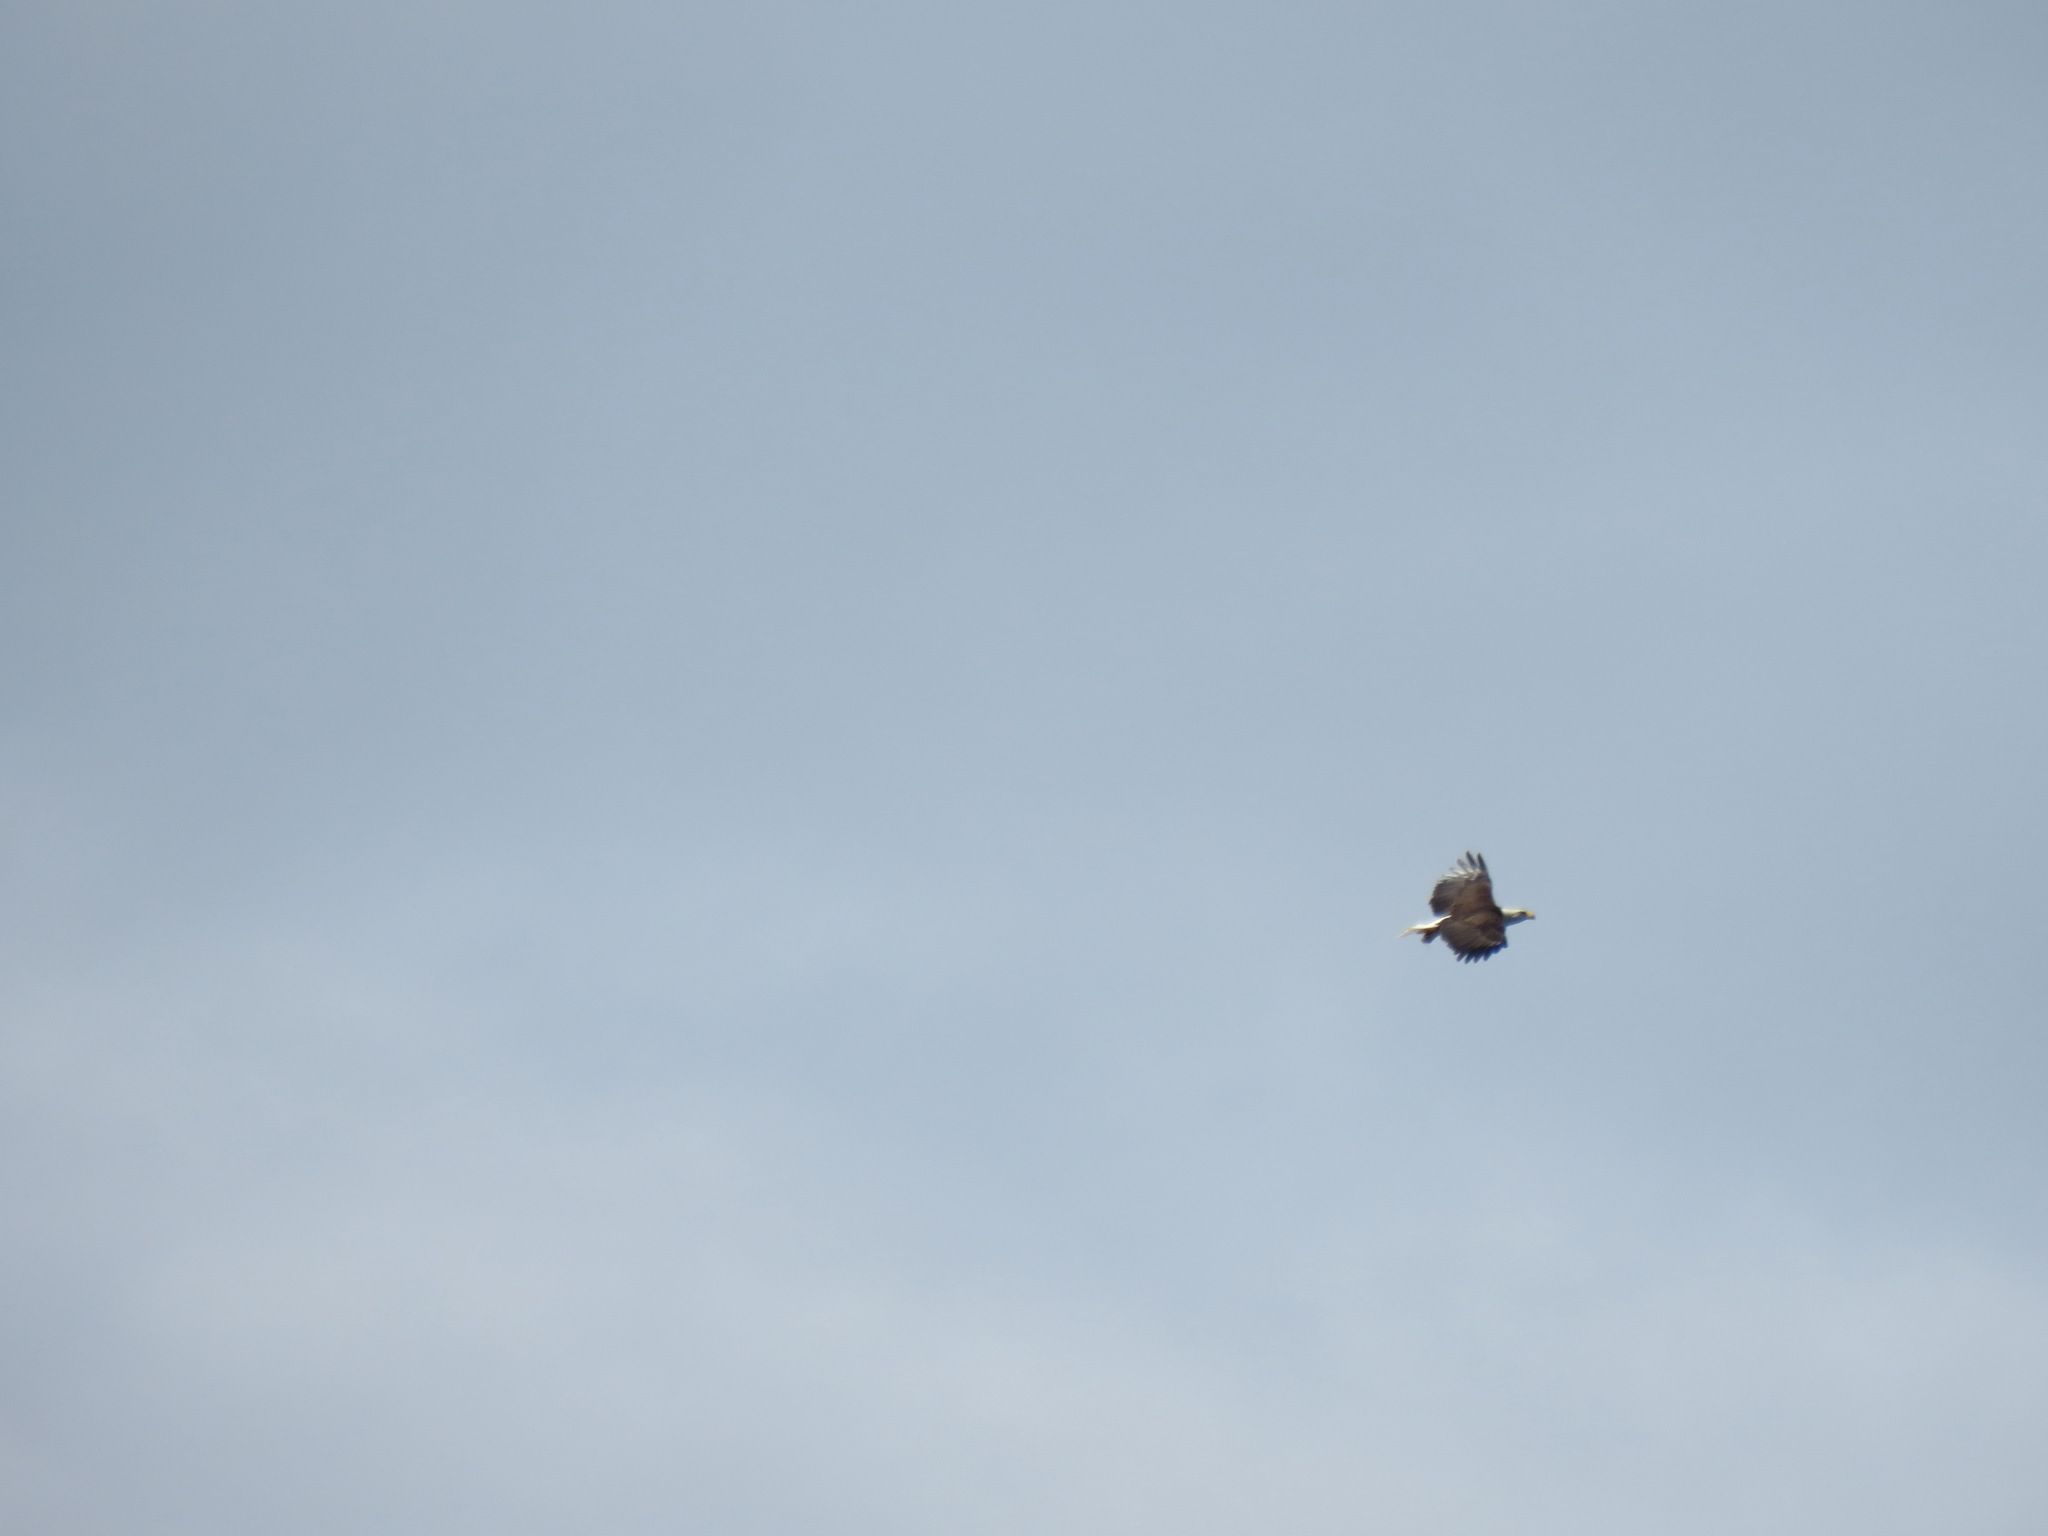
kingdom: Animalia
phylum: Chordata
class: Aves
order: Accipitriformes
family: Accipitridae
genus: Haliaeetus
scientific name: Haliaeetus leucocephalus
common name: Bald eagle
